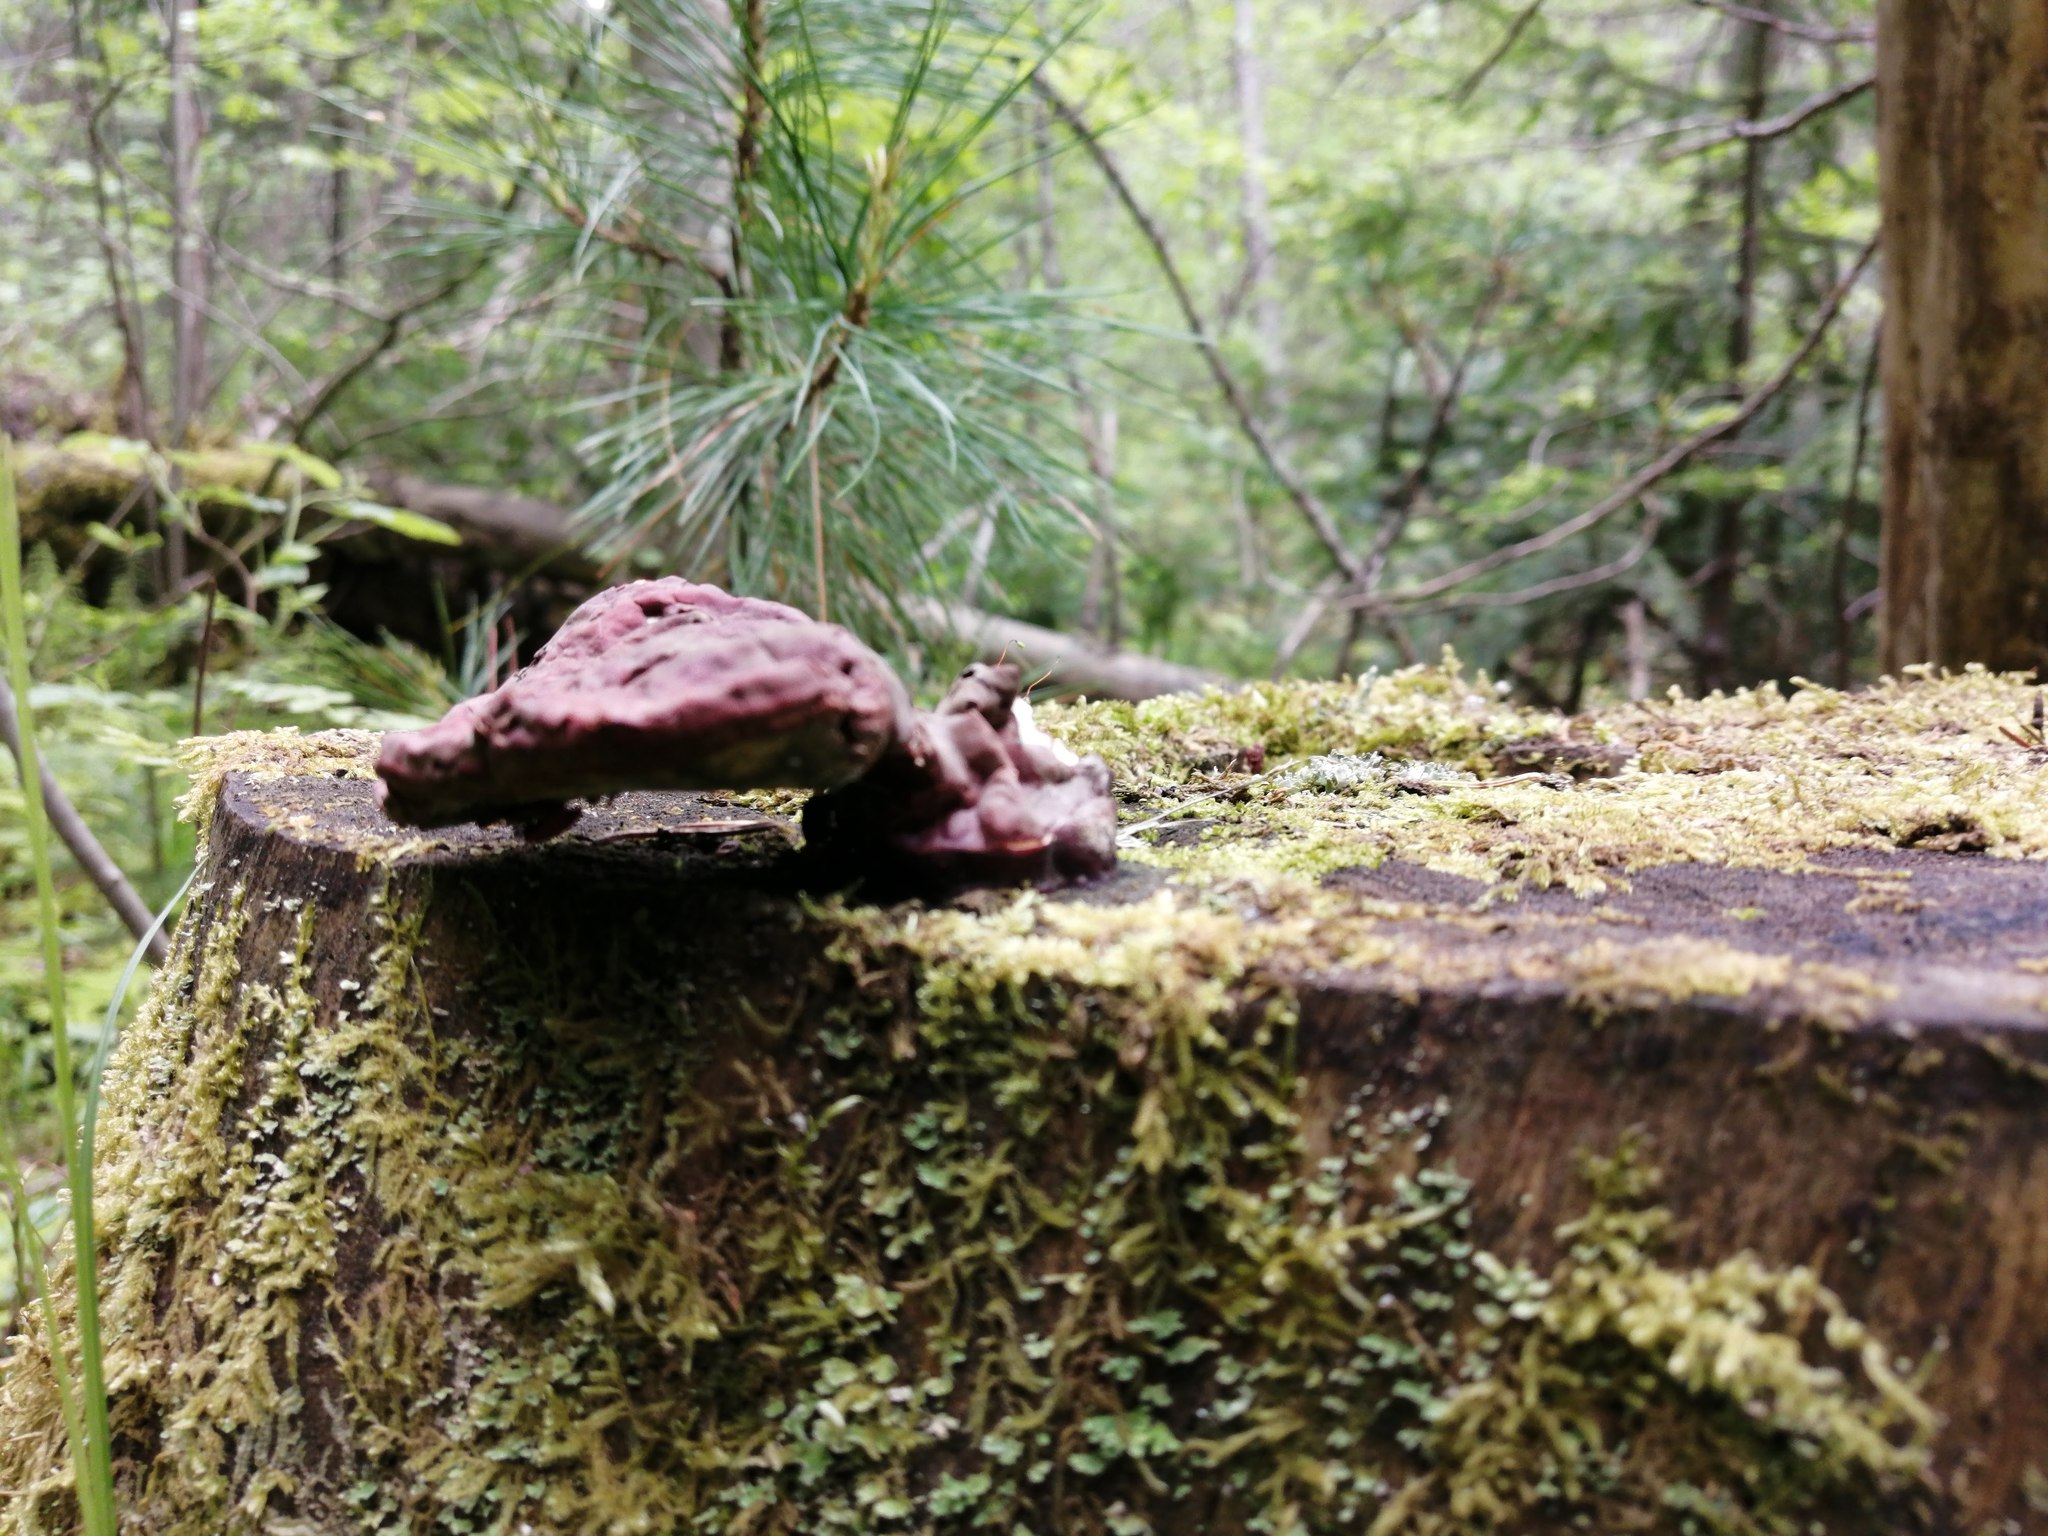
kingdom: Fungi
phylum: Basidiomycota
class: Agaricomycetes
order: Polyporales
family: Polyporaceae
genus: Ganoderma
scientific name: Ganoderma lucidum
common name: Lacquered bracket
